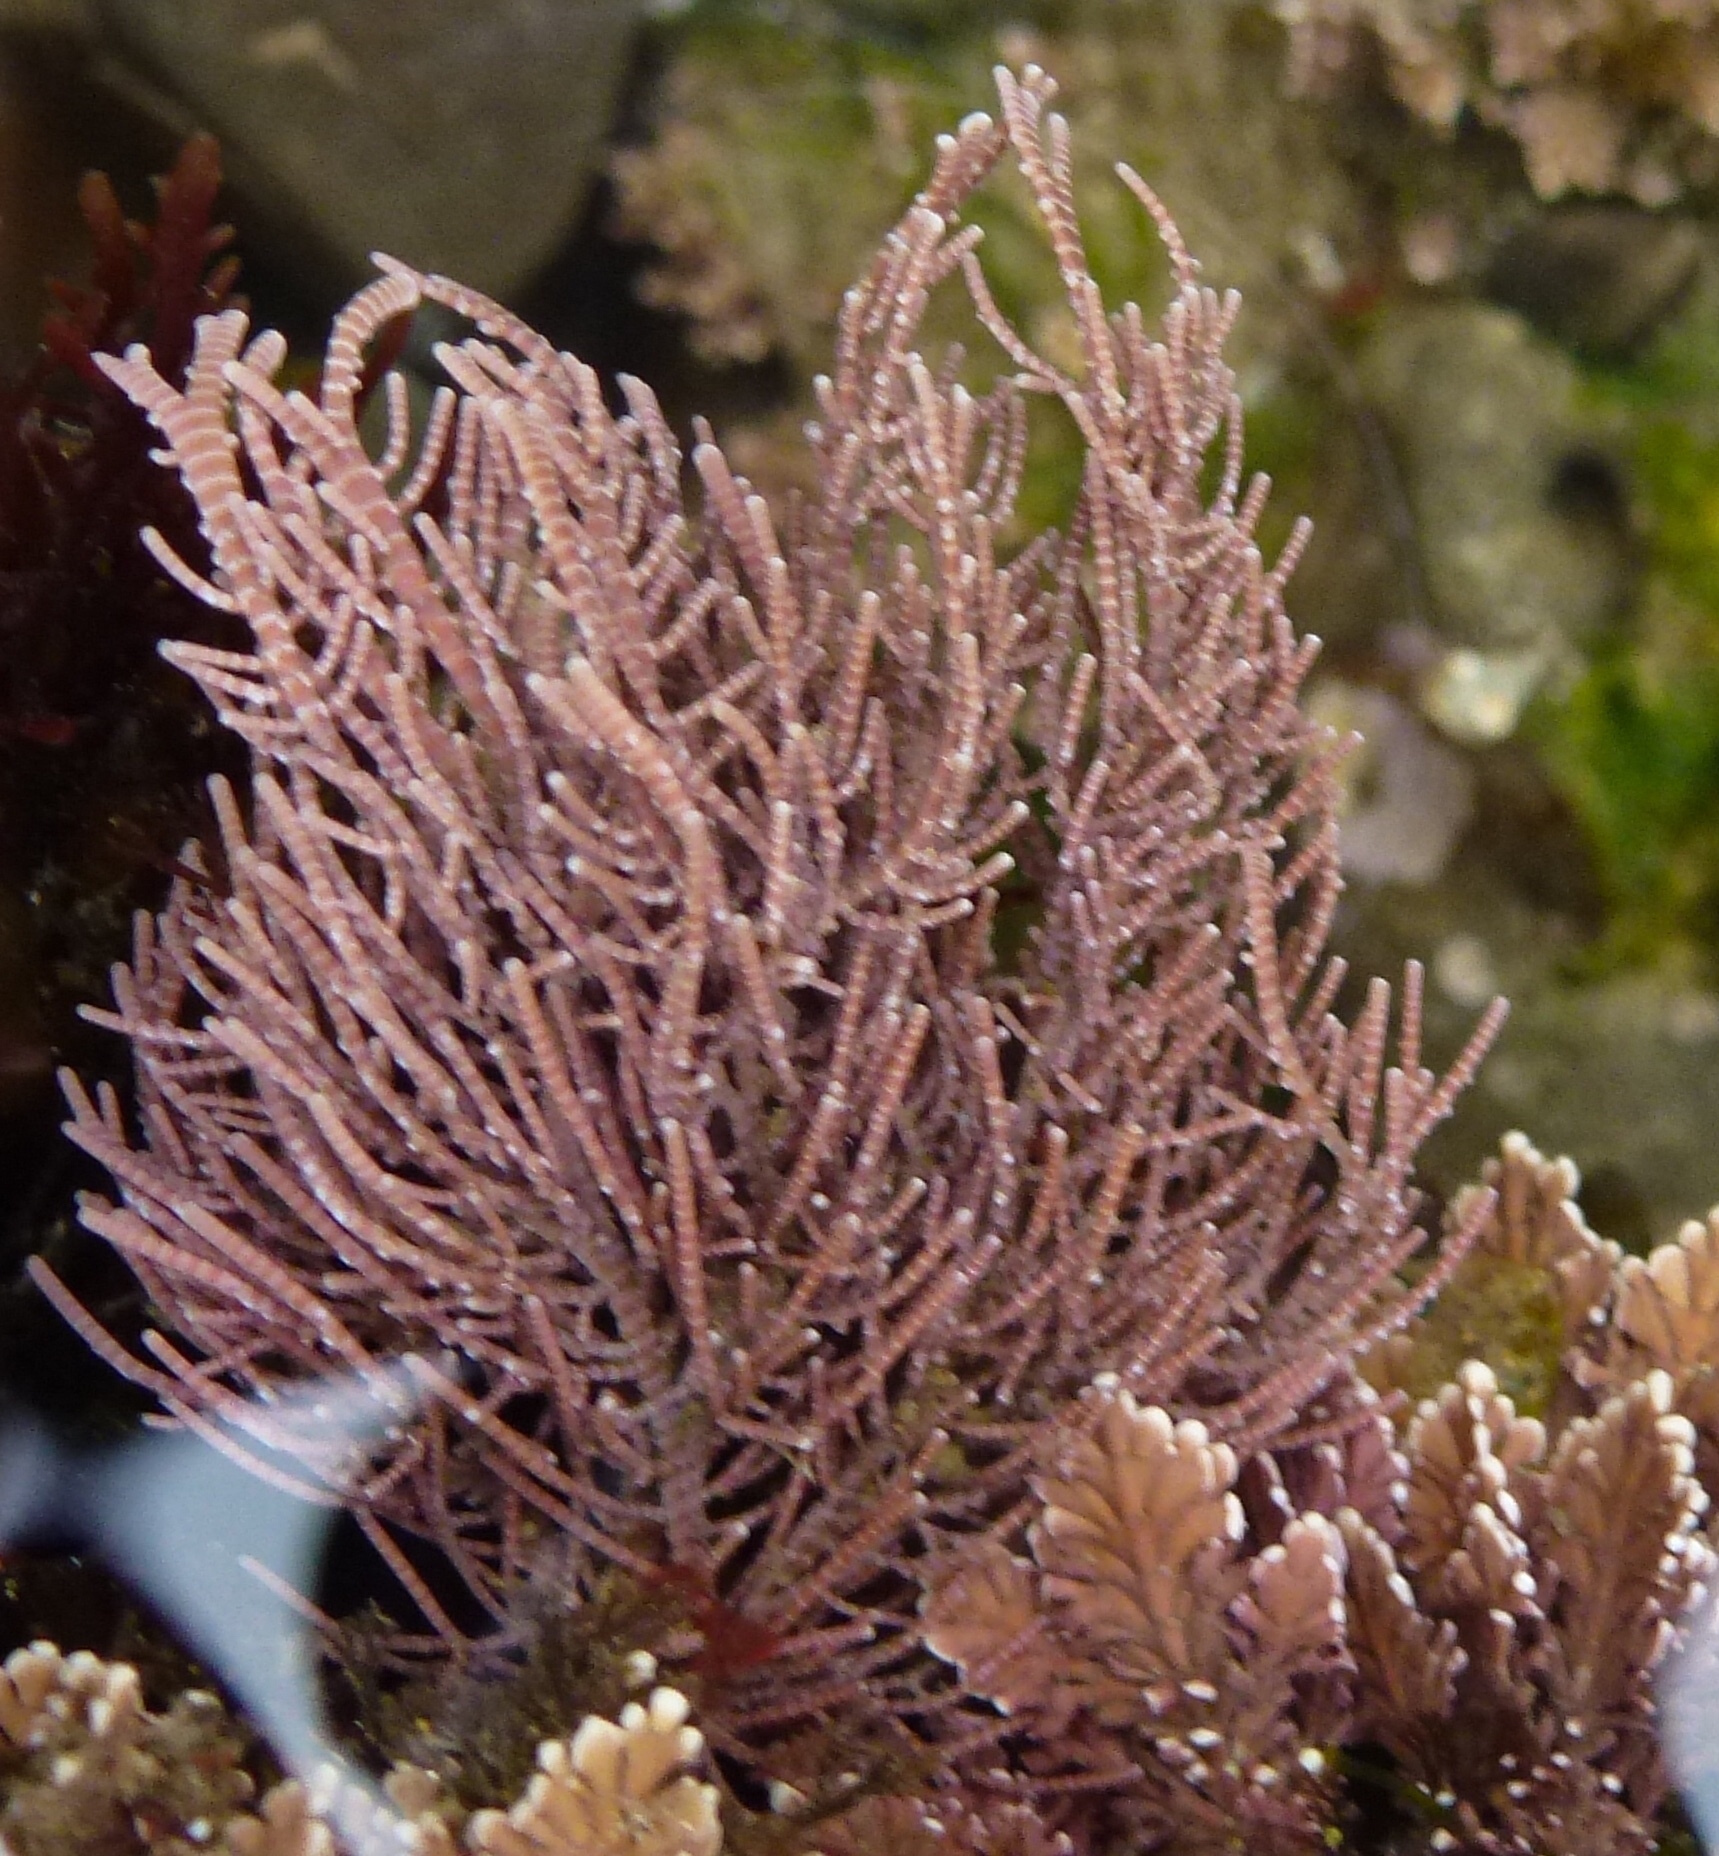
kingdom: Plantae
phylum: Rhodophyta
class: Florideophyceae
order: Corallinales
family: Lithophyllaceae
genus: Lithothrix
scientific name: Lithothrix aspergillum
